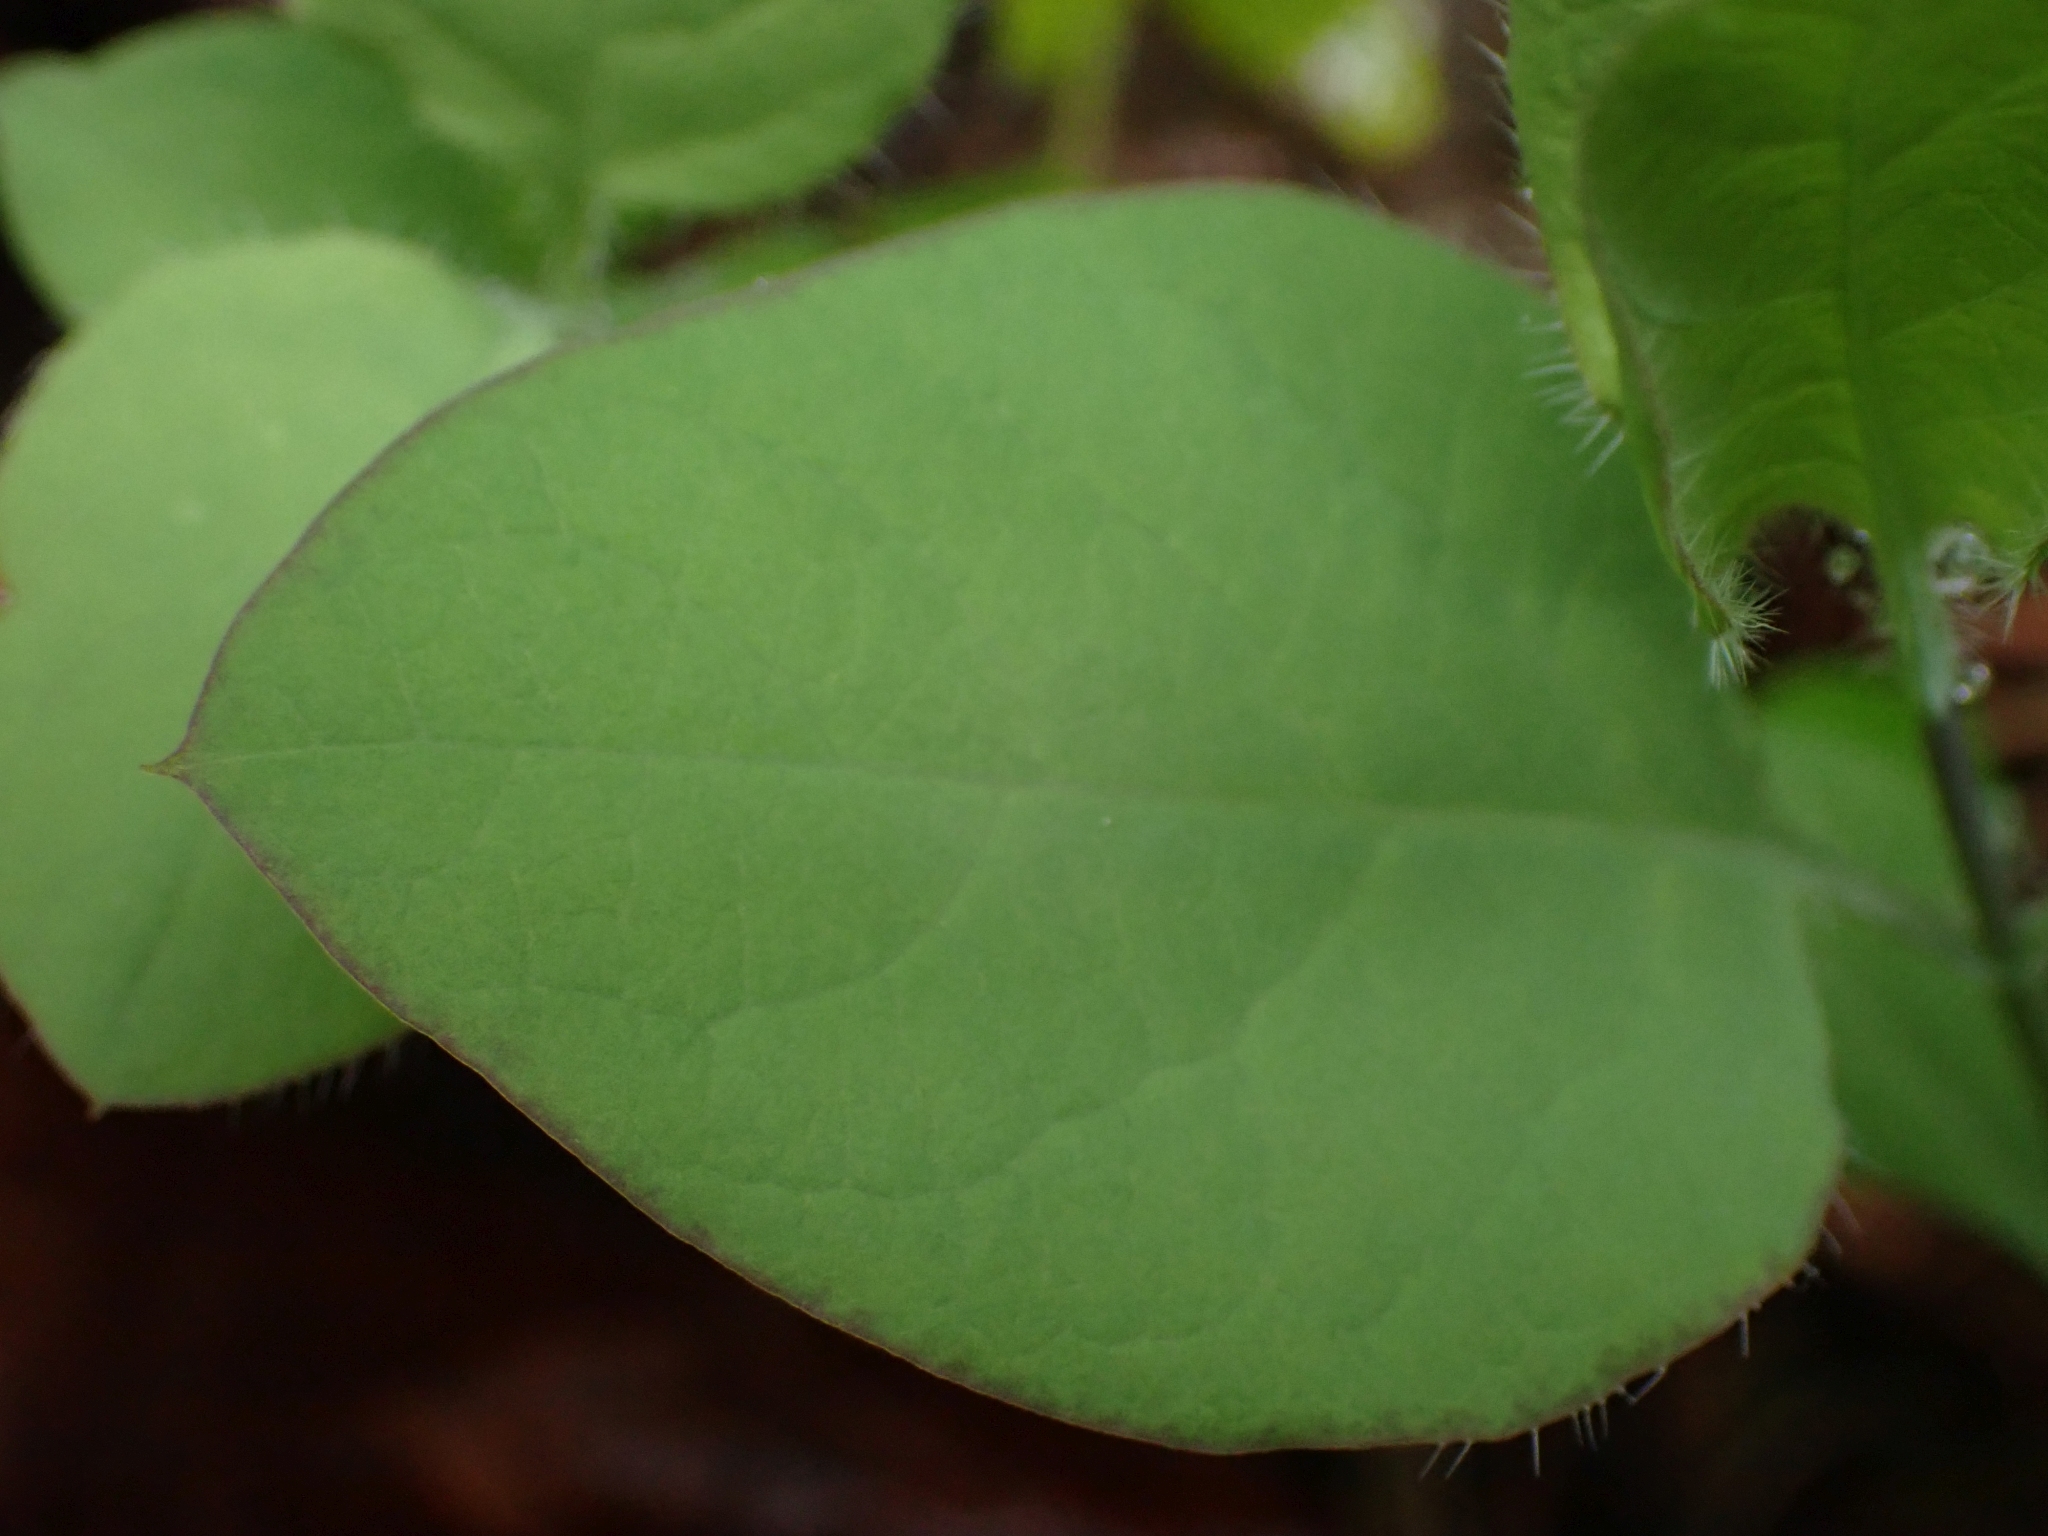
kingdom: Plantae
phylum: Tracheophyta
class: Magnoliopsida
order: Dipsacales
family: Caprifoliaceae
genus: Lonicera
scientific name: Lonicera ciliosa
